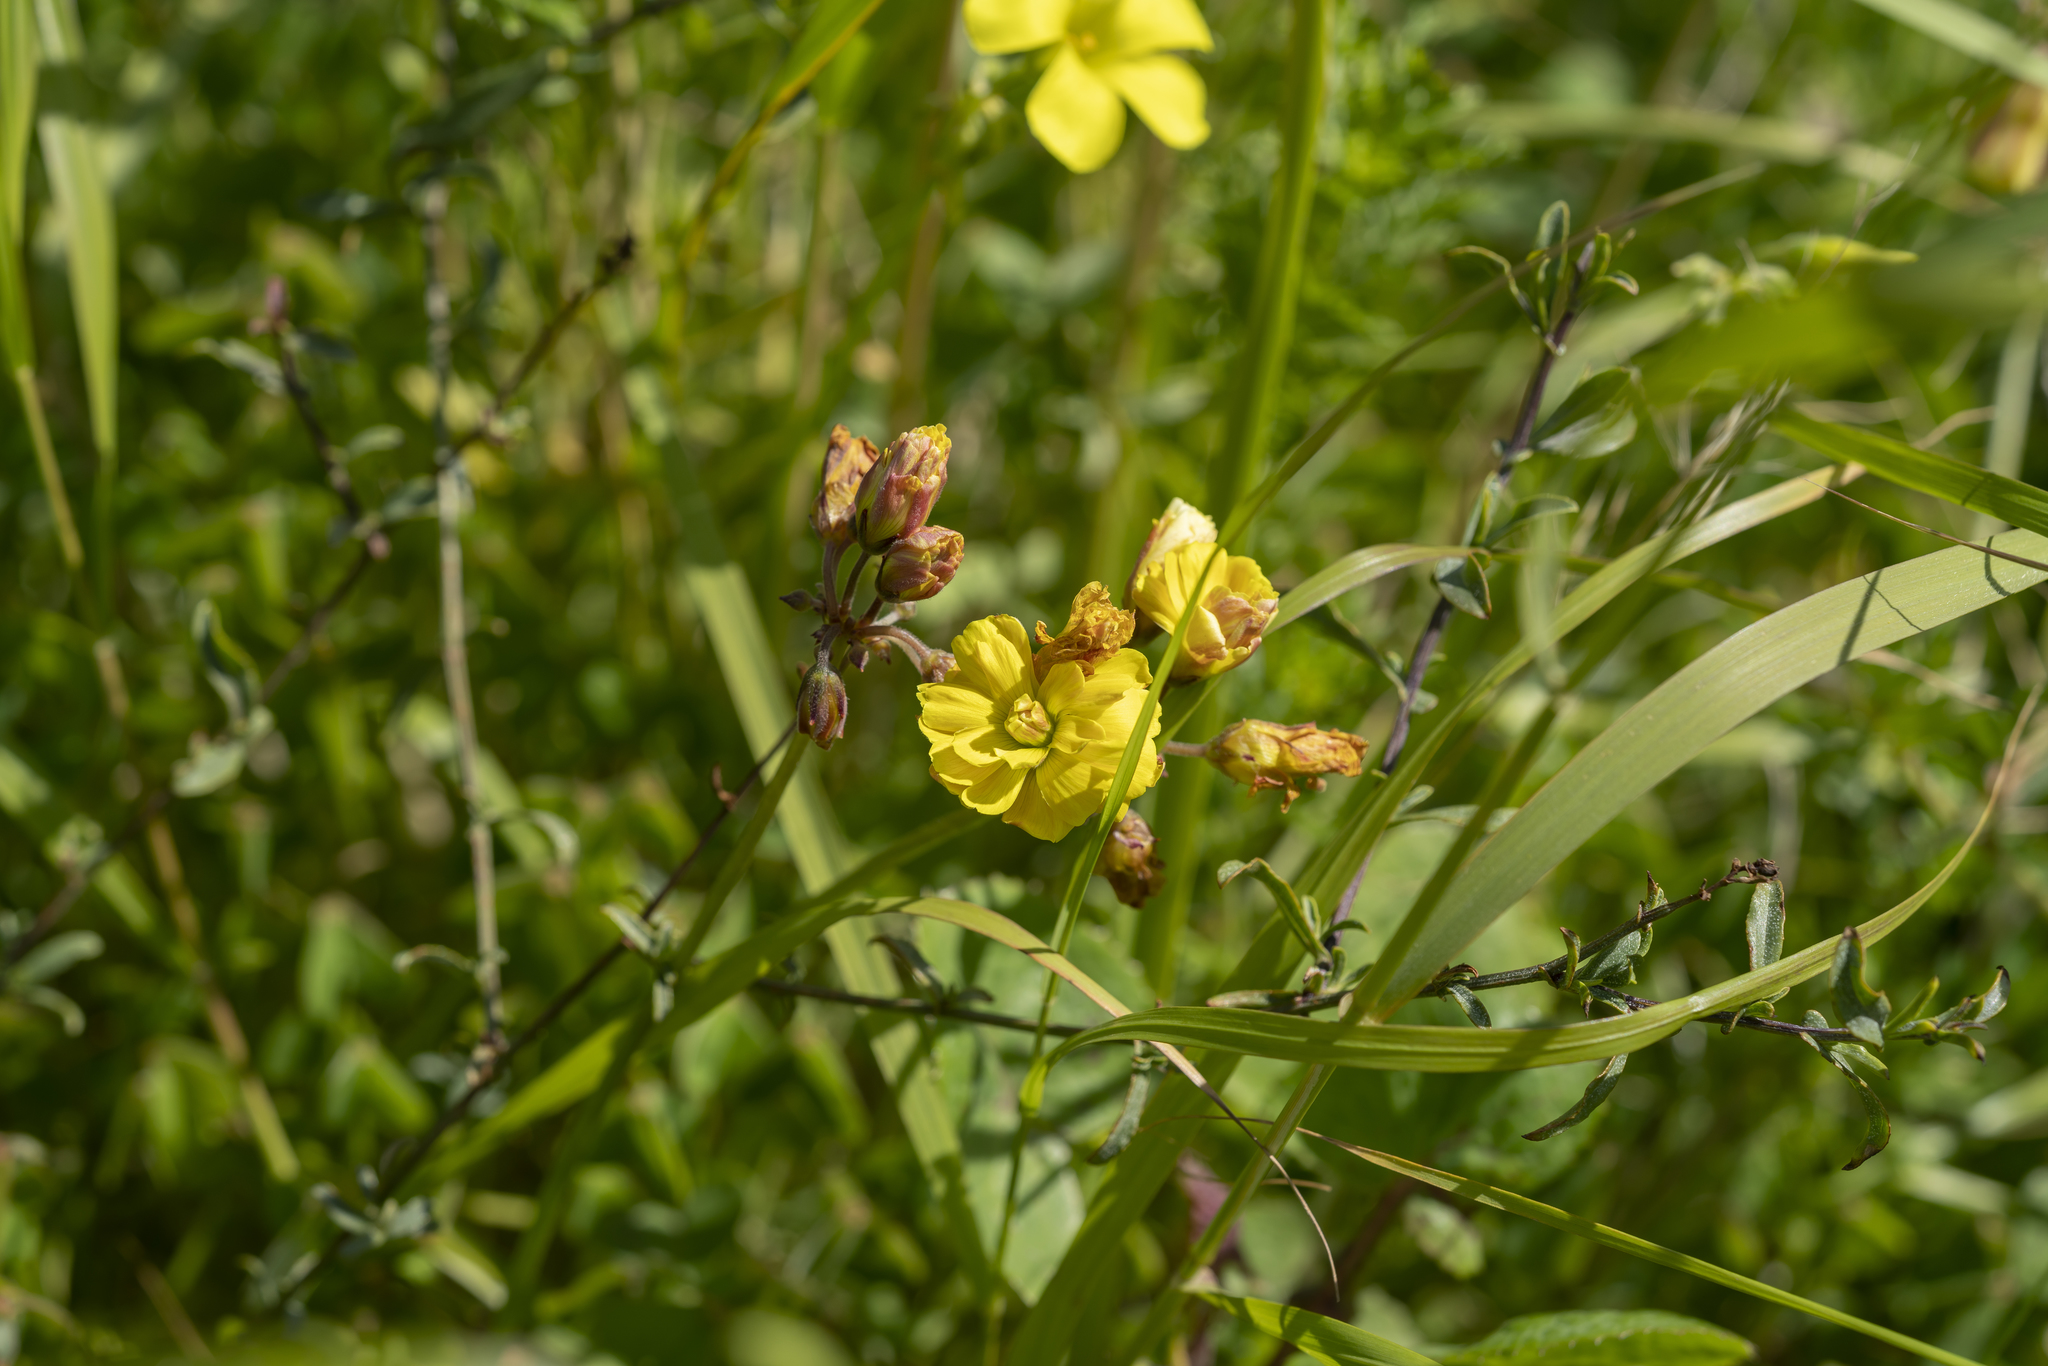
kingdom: Plantae
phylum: Tracheophyta
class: Magnoliopsida
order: Oxalidales
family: Oxalidaceae
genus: Oxalis
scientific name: Oxalis pes-caprae
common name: Bermuda-buttercup
